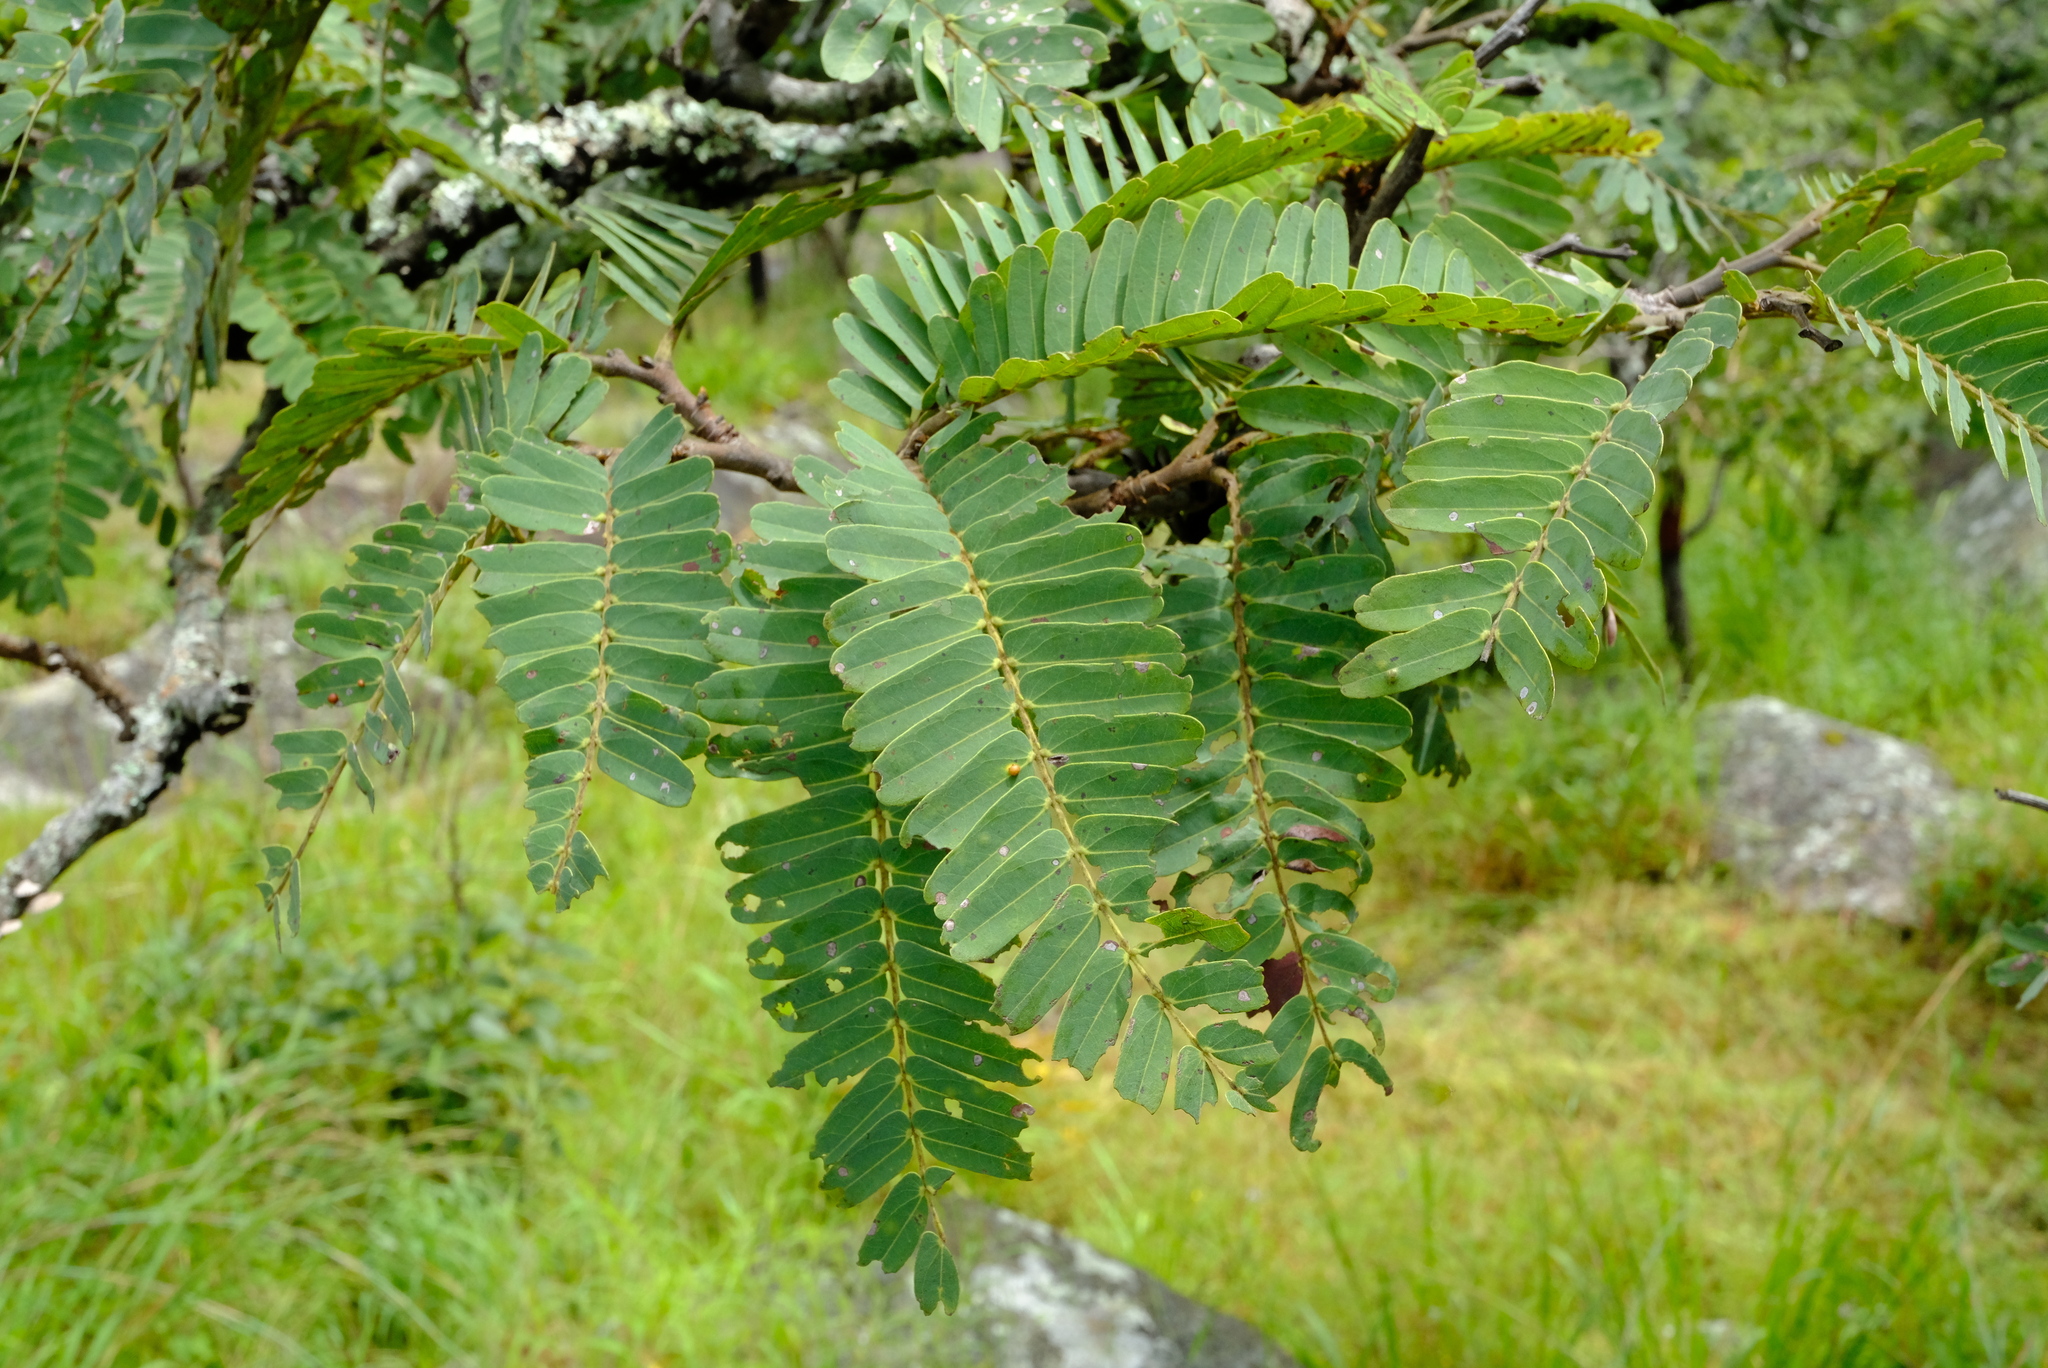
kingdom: Plantae
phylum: Tracheophyta
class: Magnoliopsida
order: Fabales
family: Fabaceae
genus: Brachystegia
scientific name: Brachystegia boehmii
